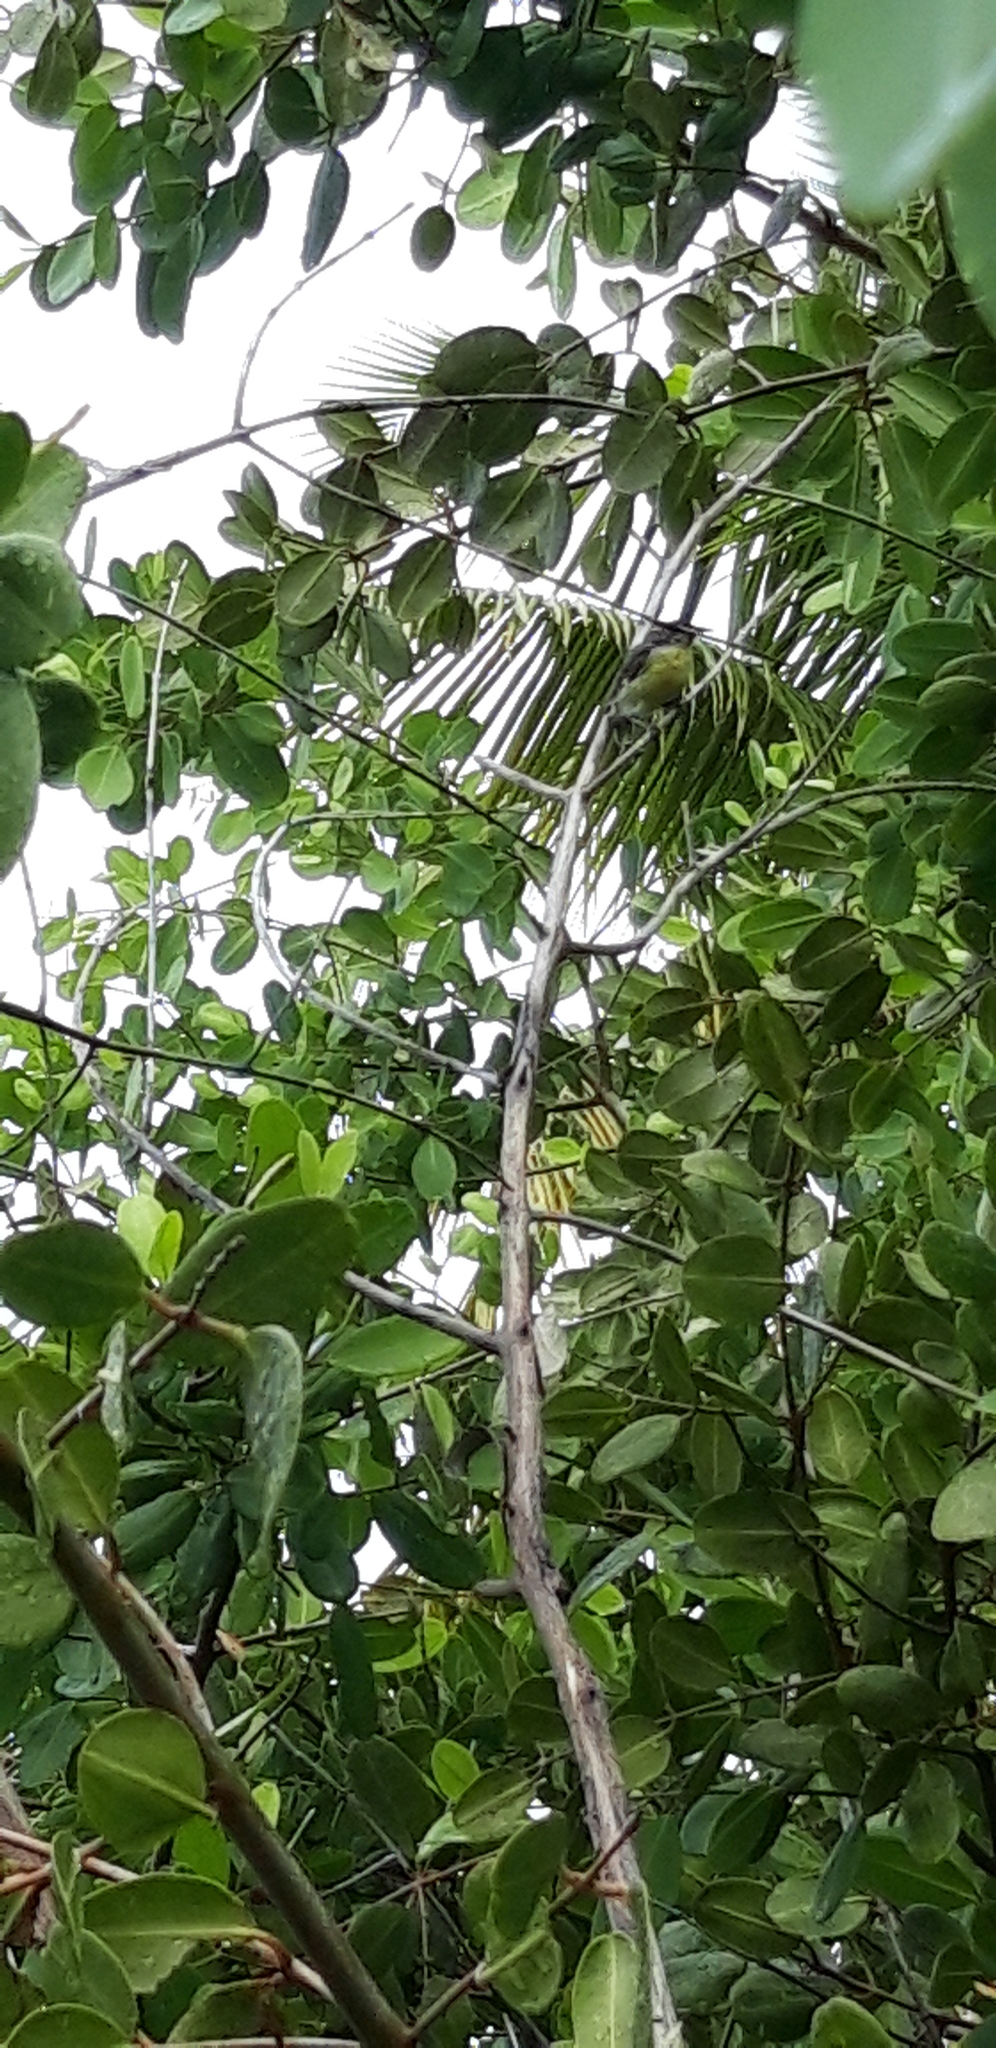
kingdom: Animalia
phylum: Chordata
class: Aves
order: Passeriformes
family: Thraupidae
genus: Coereba
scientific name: Coereba flaveola
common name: Bananaquit
